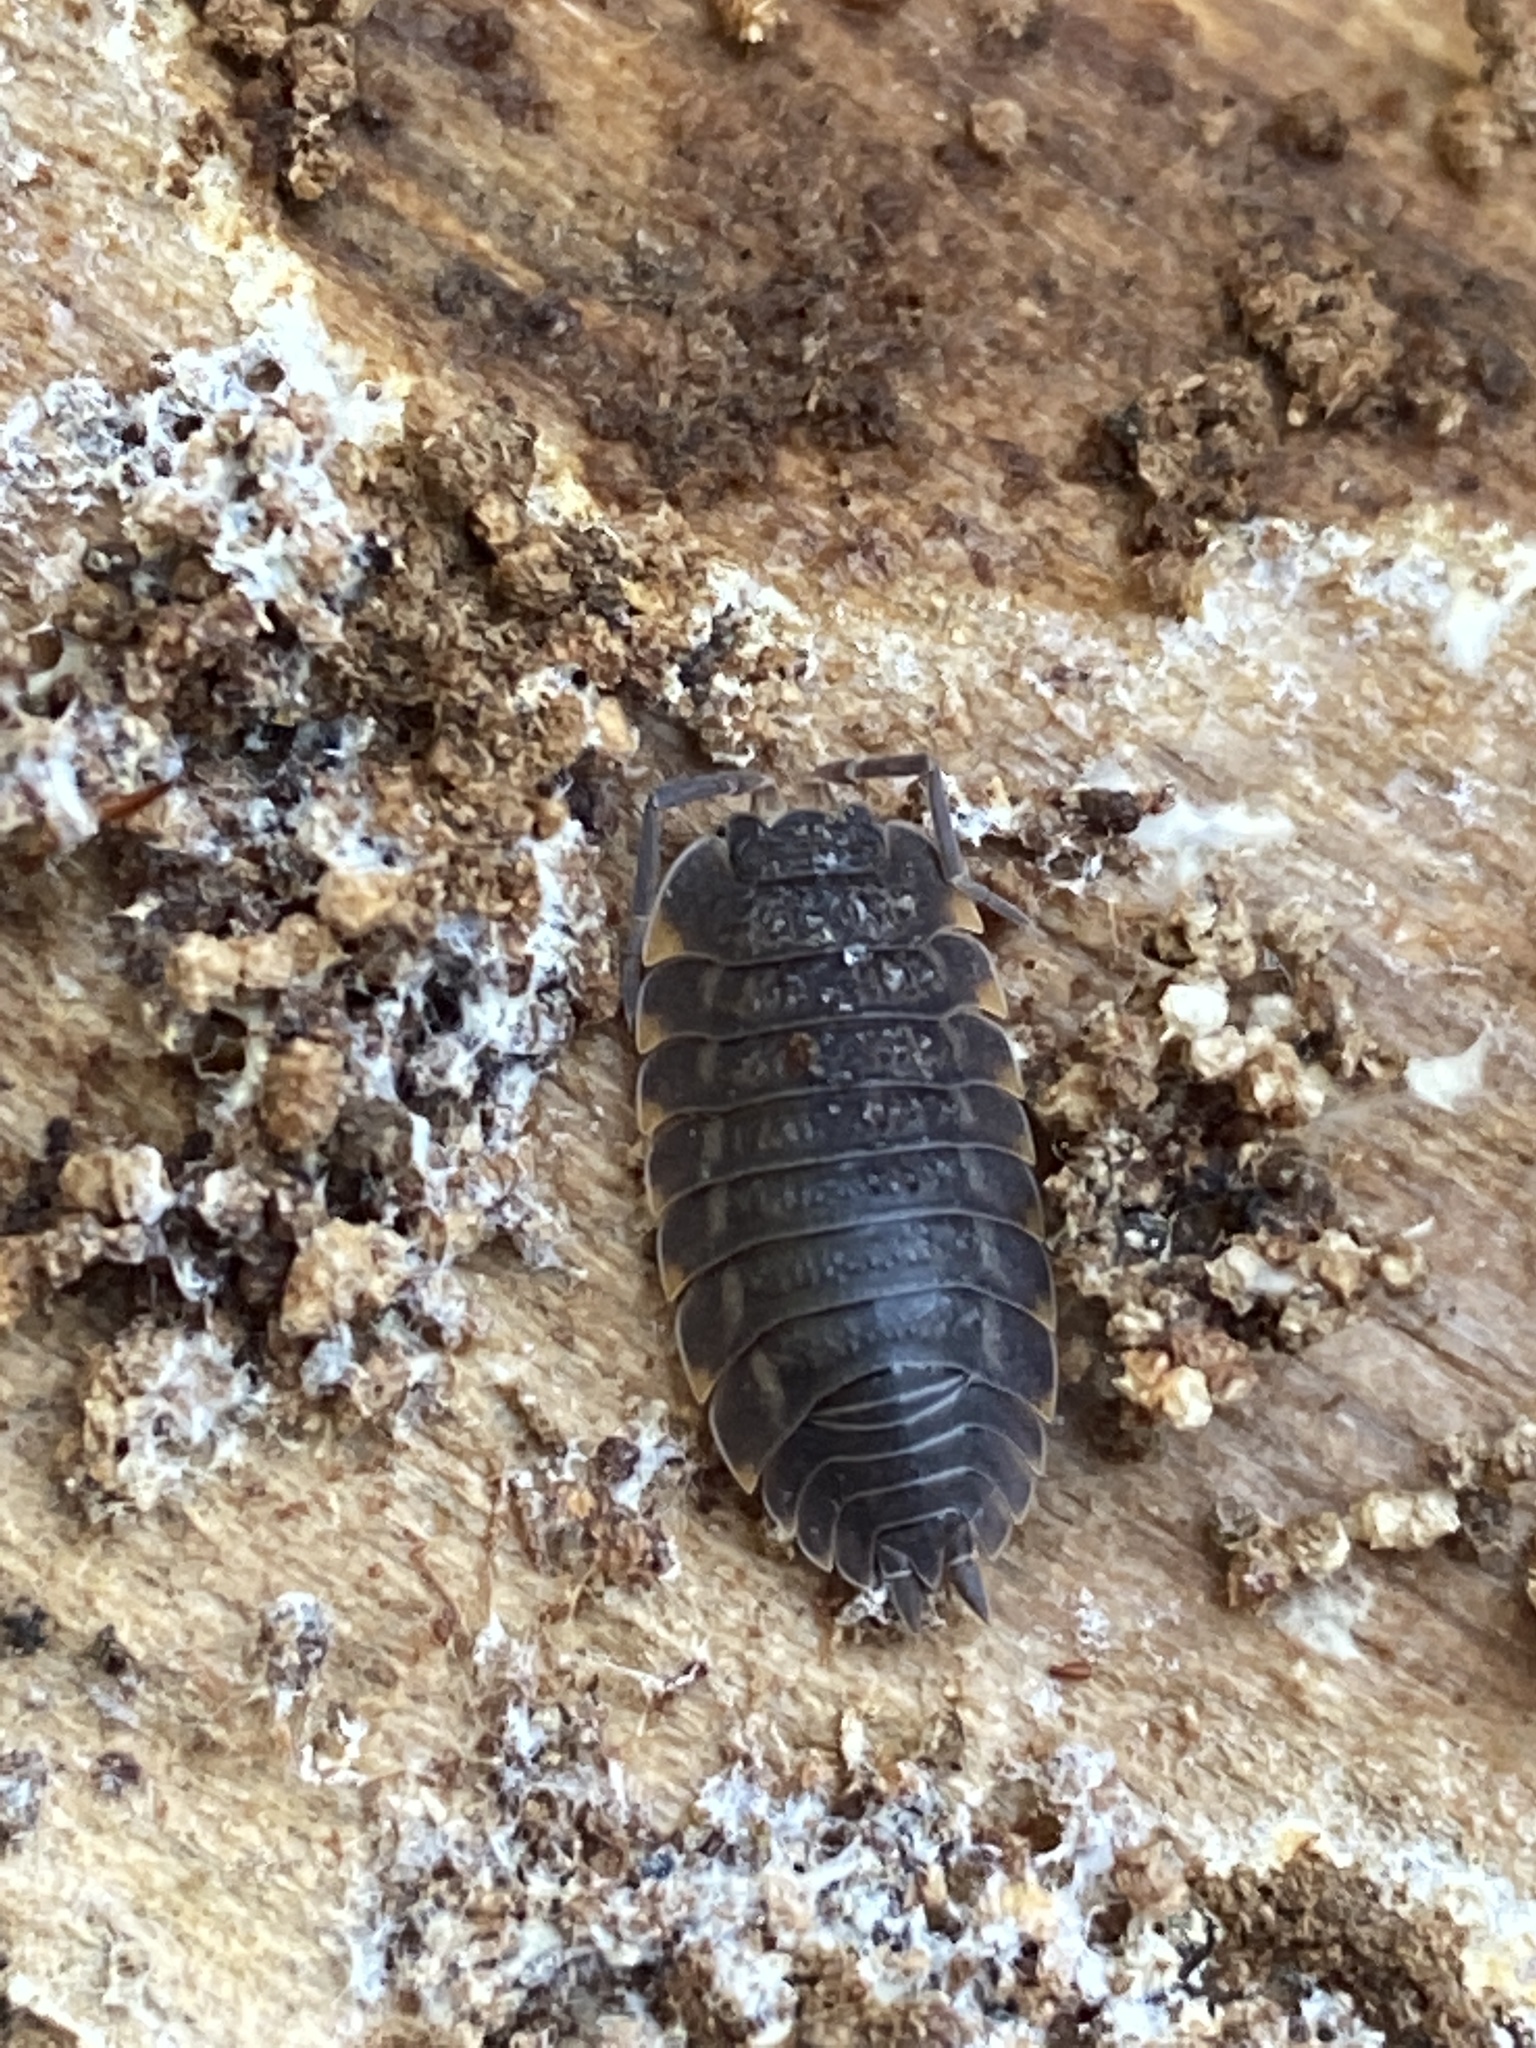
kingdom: Animalia
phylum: Arthropoda
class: Malacostraca
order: Isopoda
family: Trachelipodidae
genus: Trachelipus
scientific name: Trachelipus ratzeburgii
